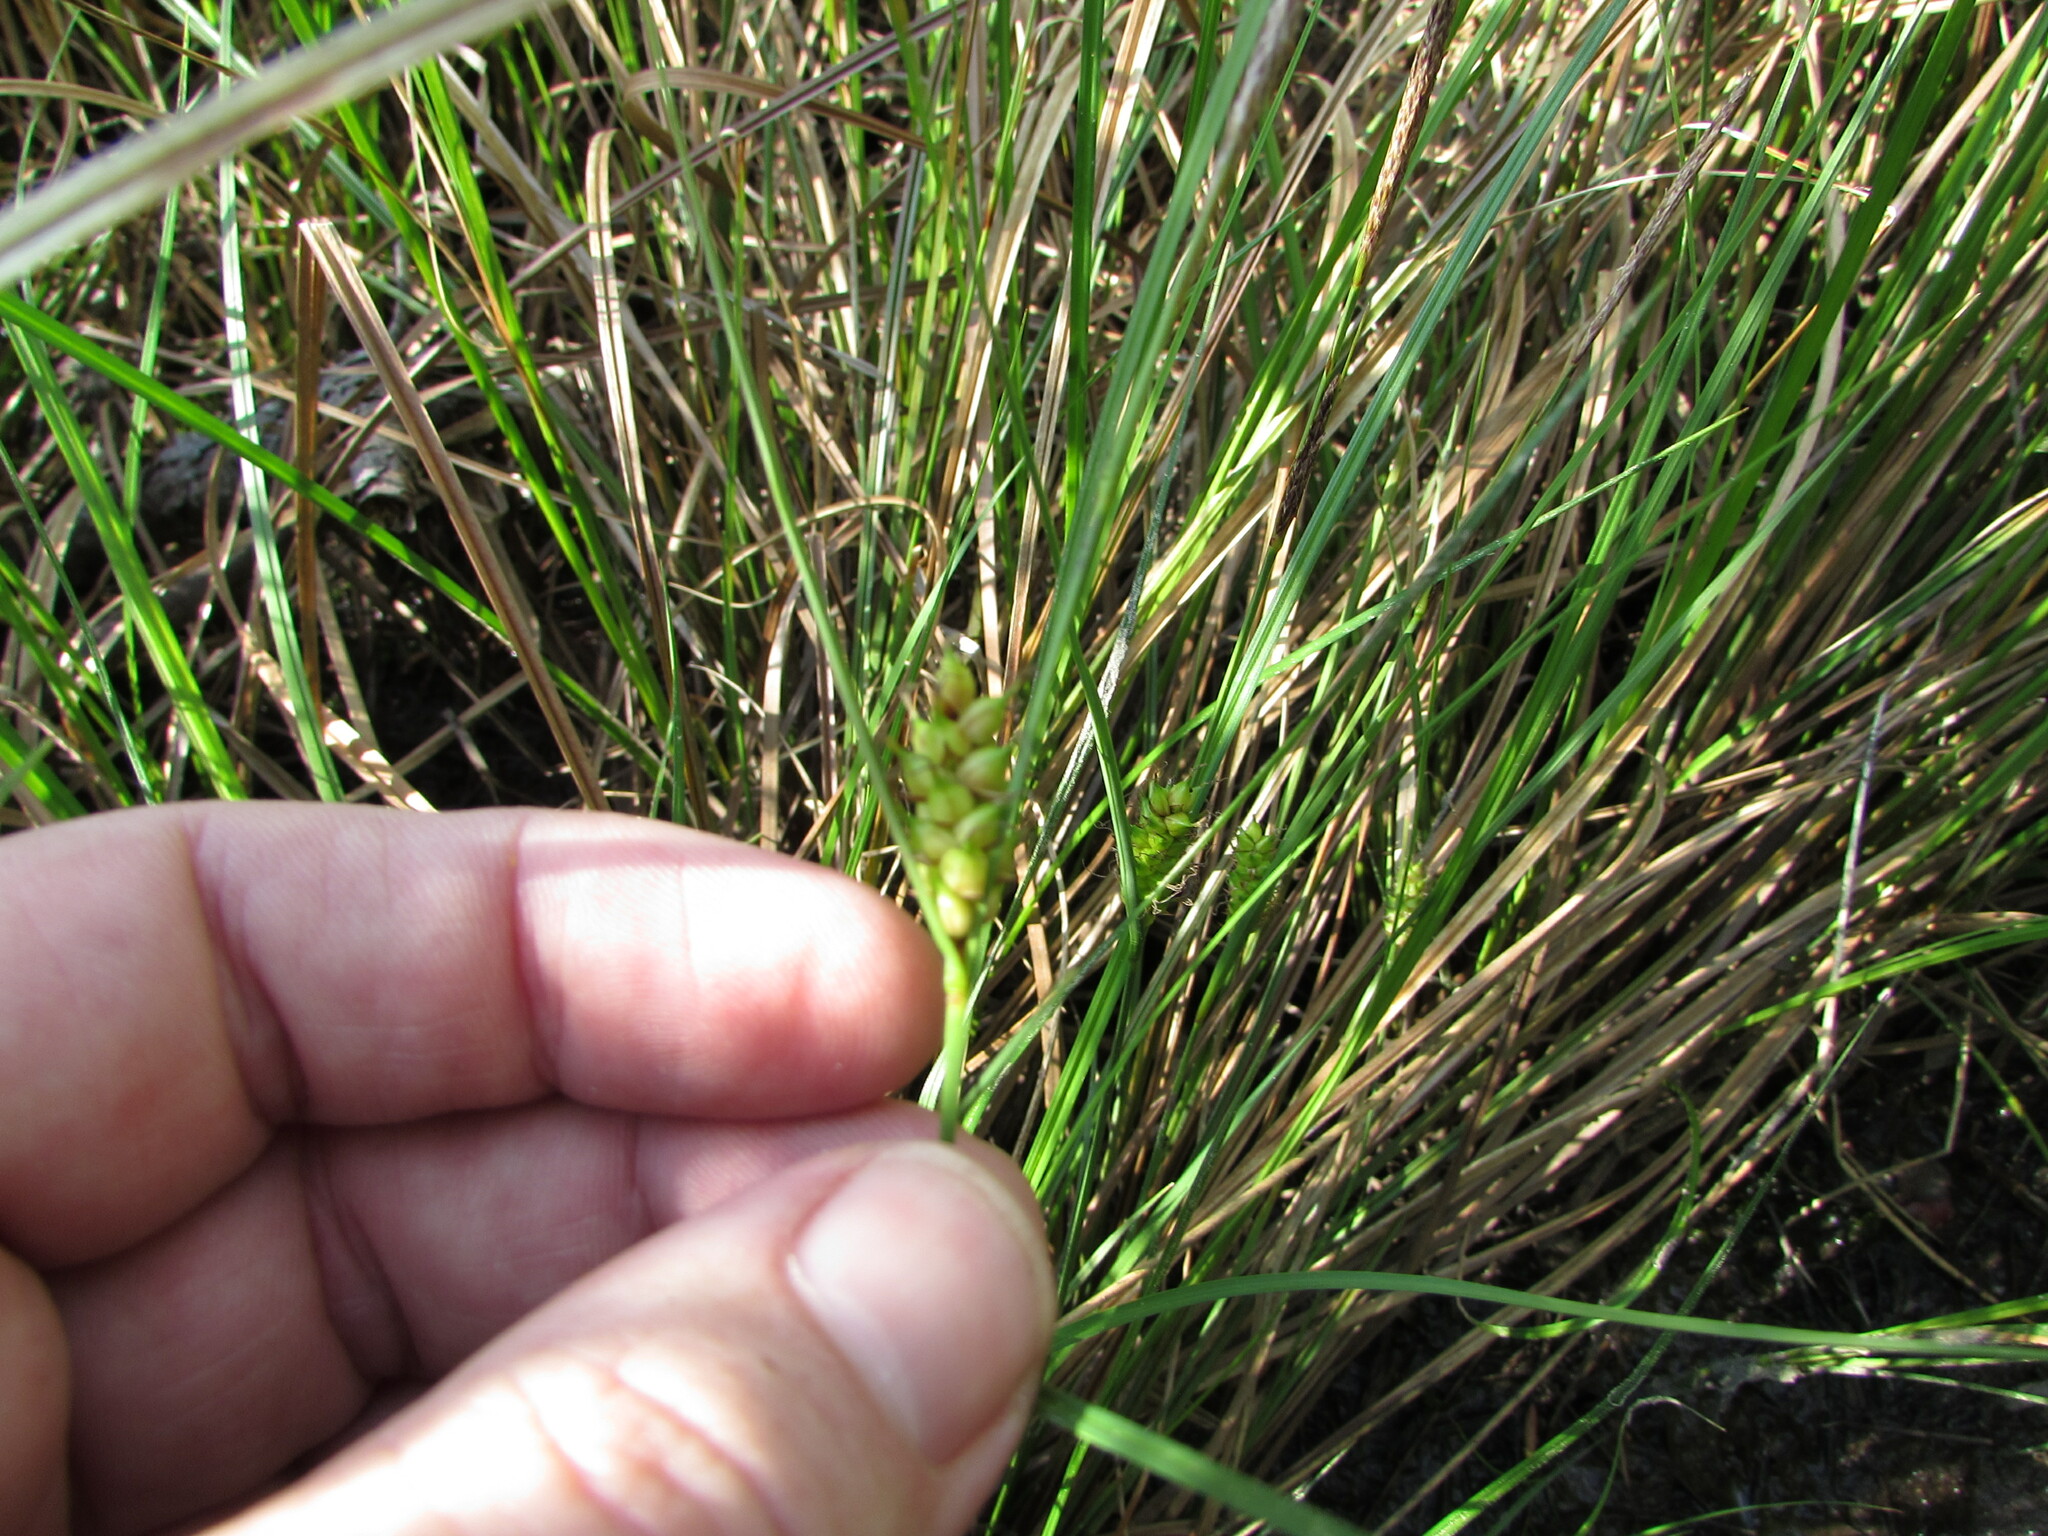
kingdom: Plantae
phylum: Tracheophyta
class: Liliopsida
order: Poales
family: Cyperaceae
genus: Carex
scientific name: Carex striata
